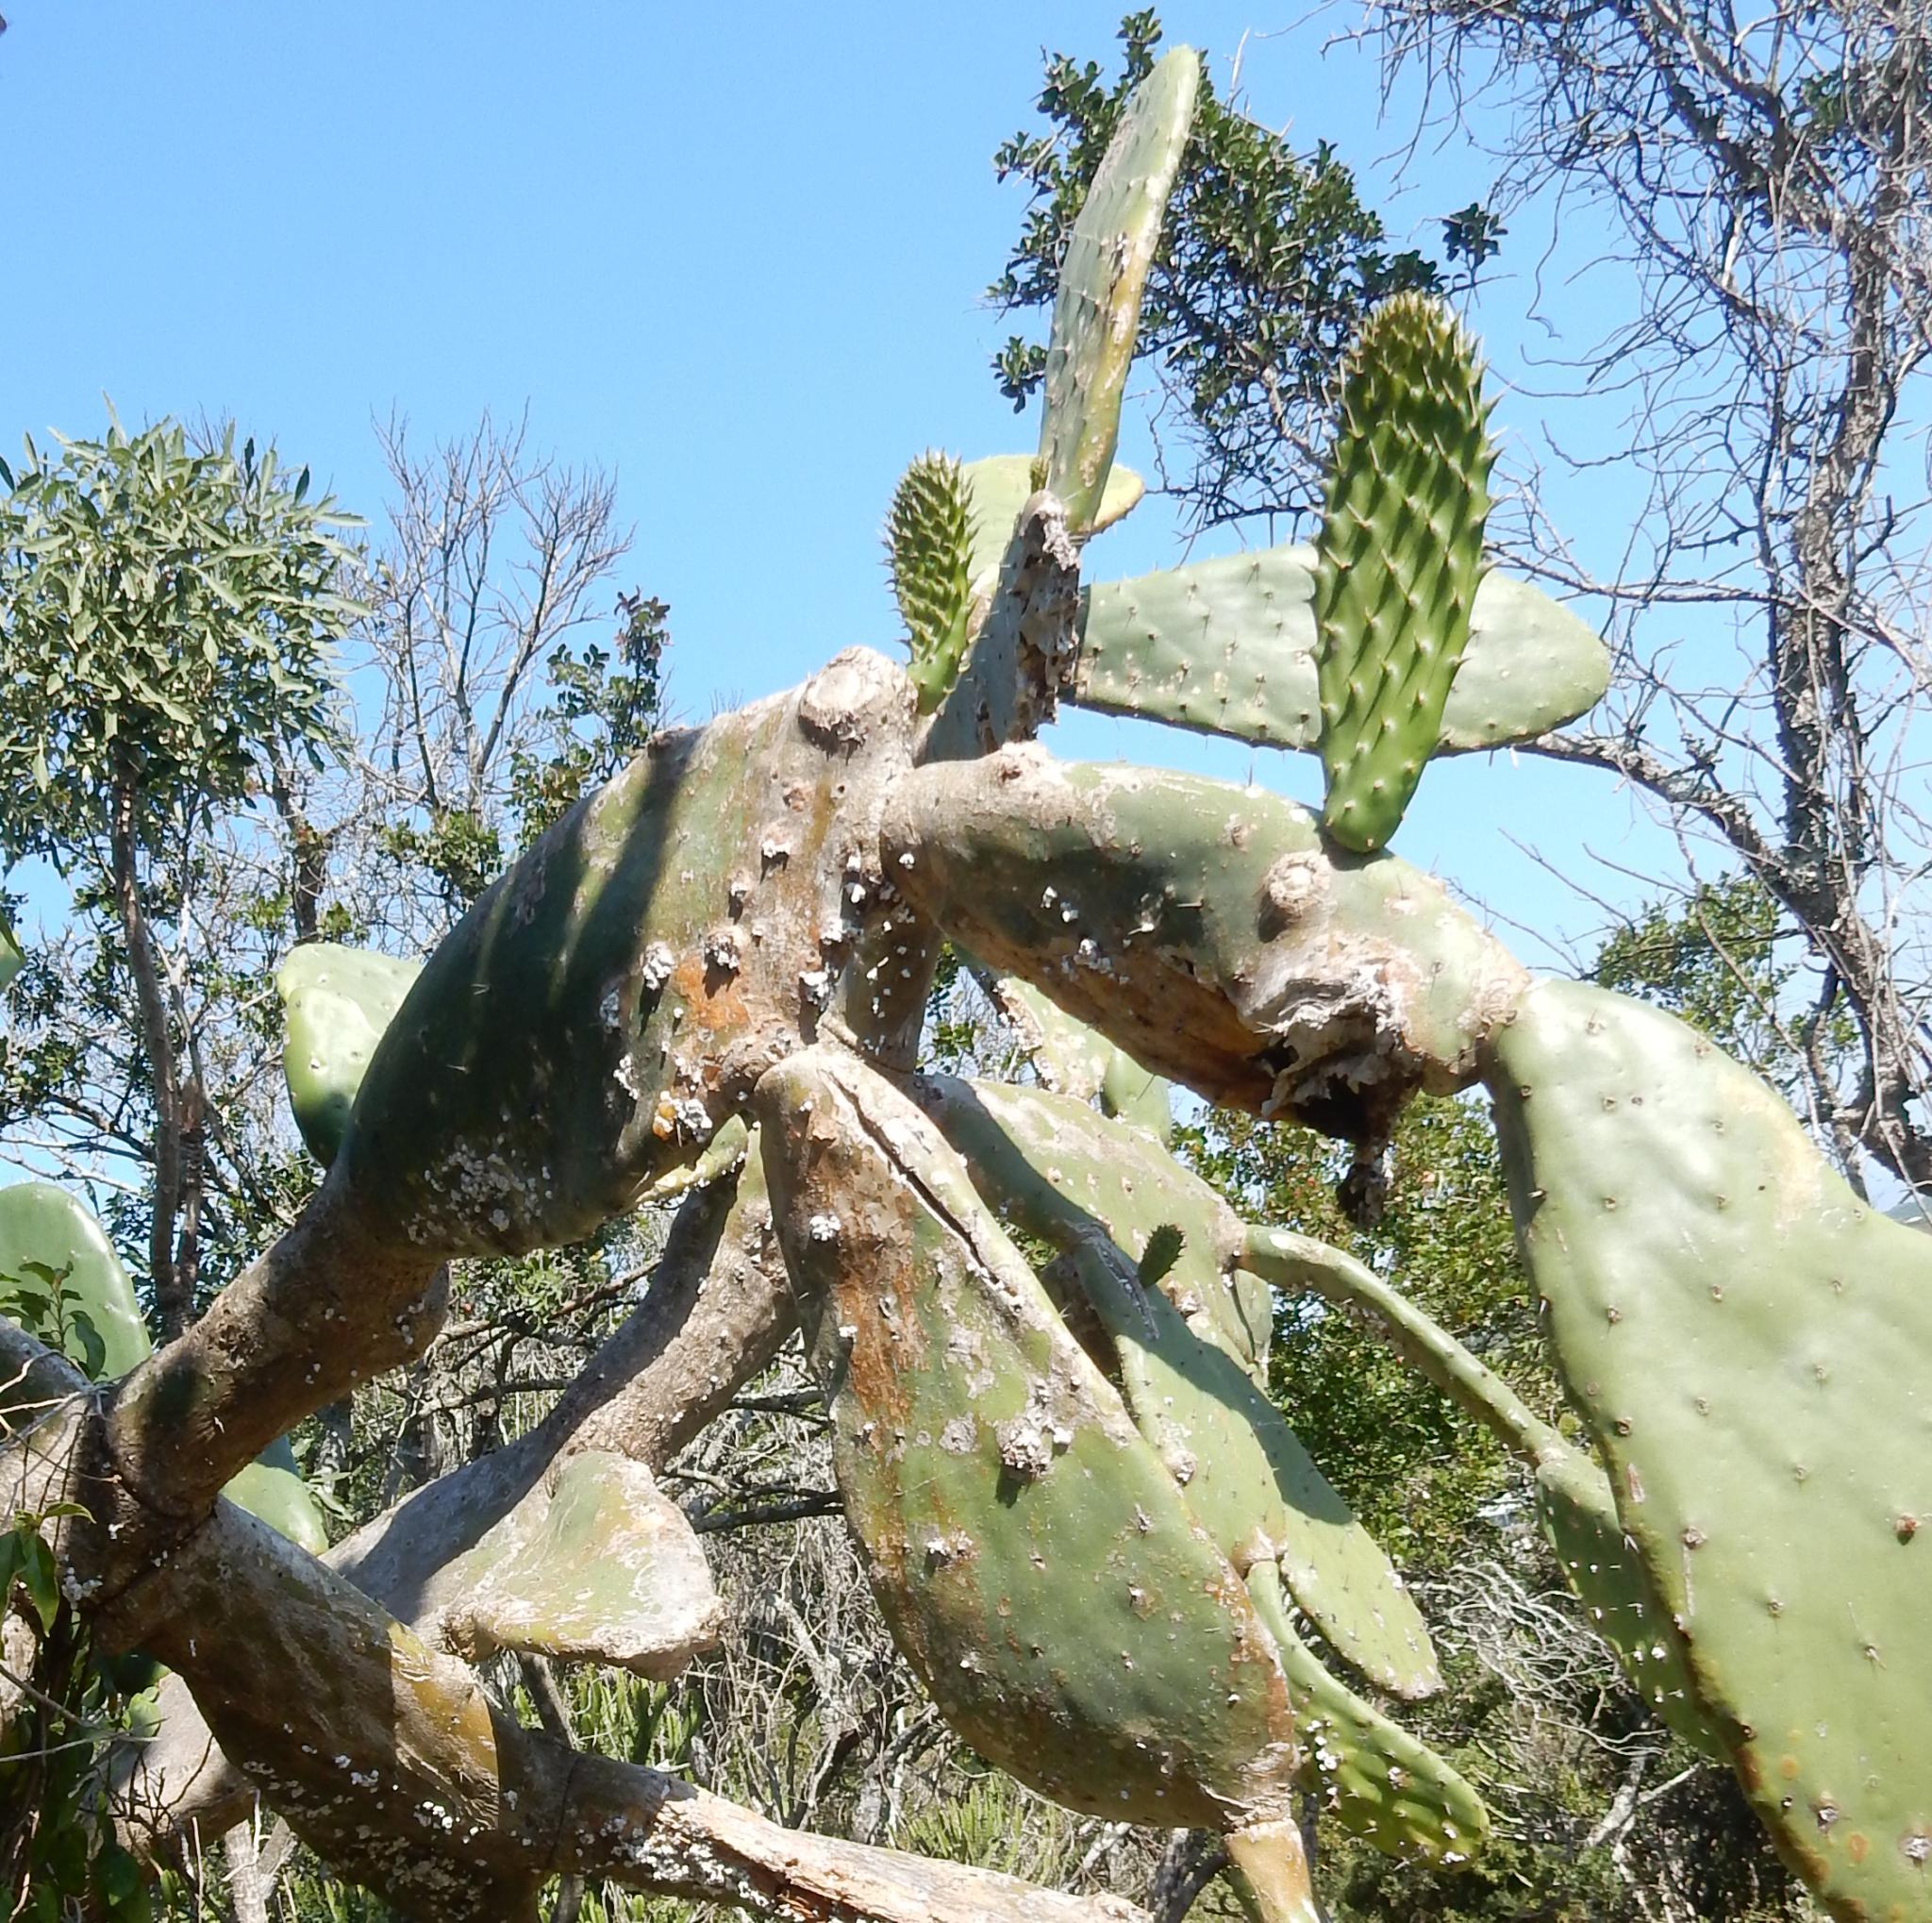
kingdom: Plantae
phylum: Tracheophyta
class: Magnoliopsida
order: Caryophyllales
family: Cactaceae
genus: Opuntia
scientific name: Opuntia ficus-indica
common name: Barbary fig
